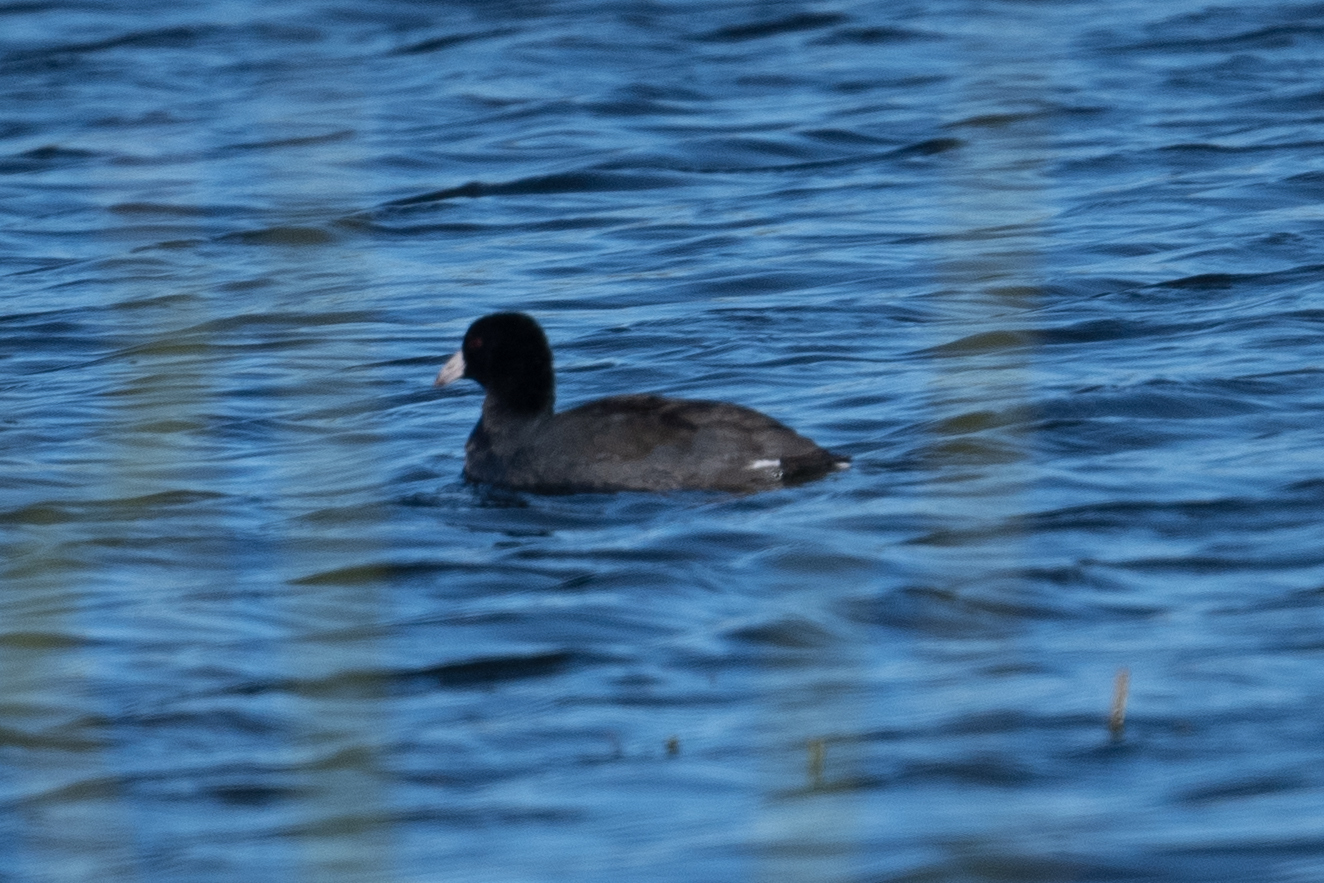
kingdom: Animalia
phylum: Chordata
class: Aves
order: Gruiformes
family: Rallidae
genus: Fulica
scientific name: Fulica americana
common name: American coot
